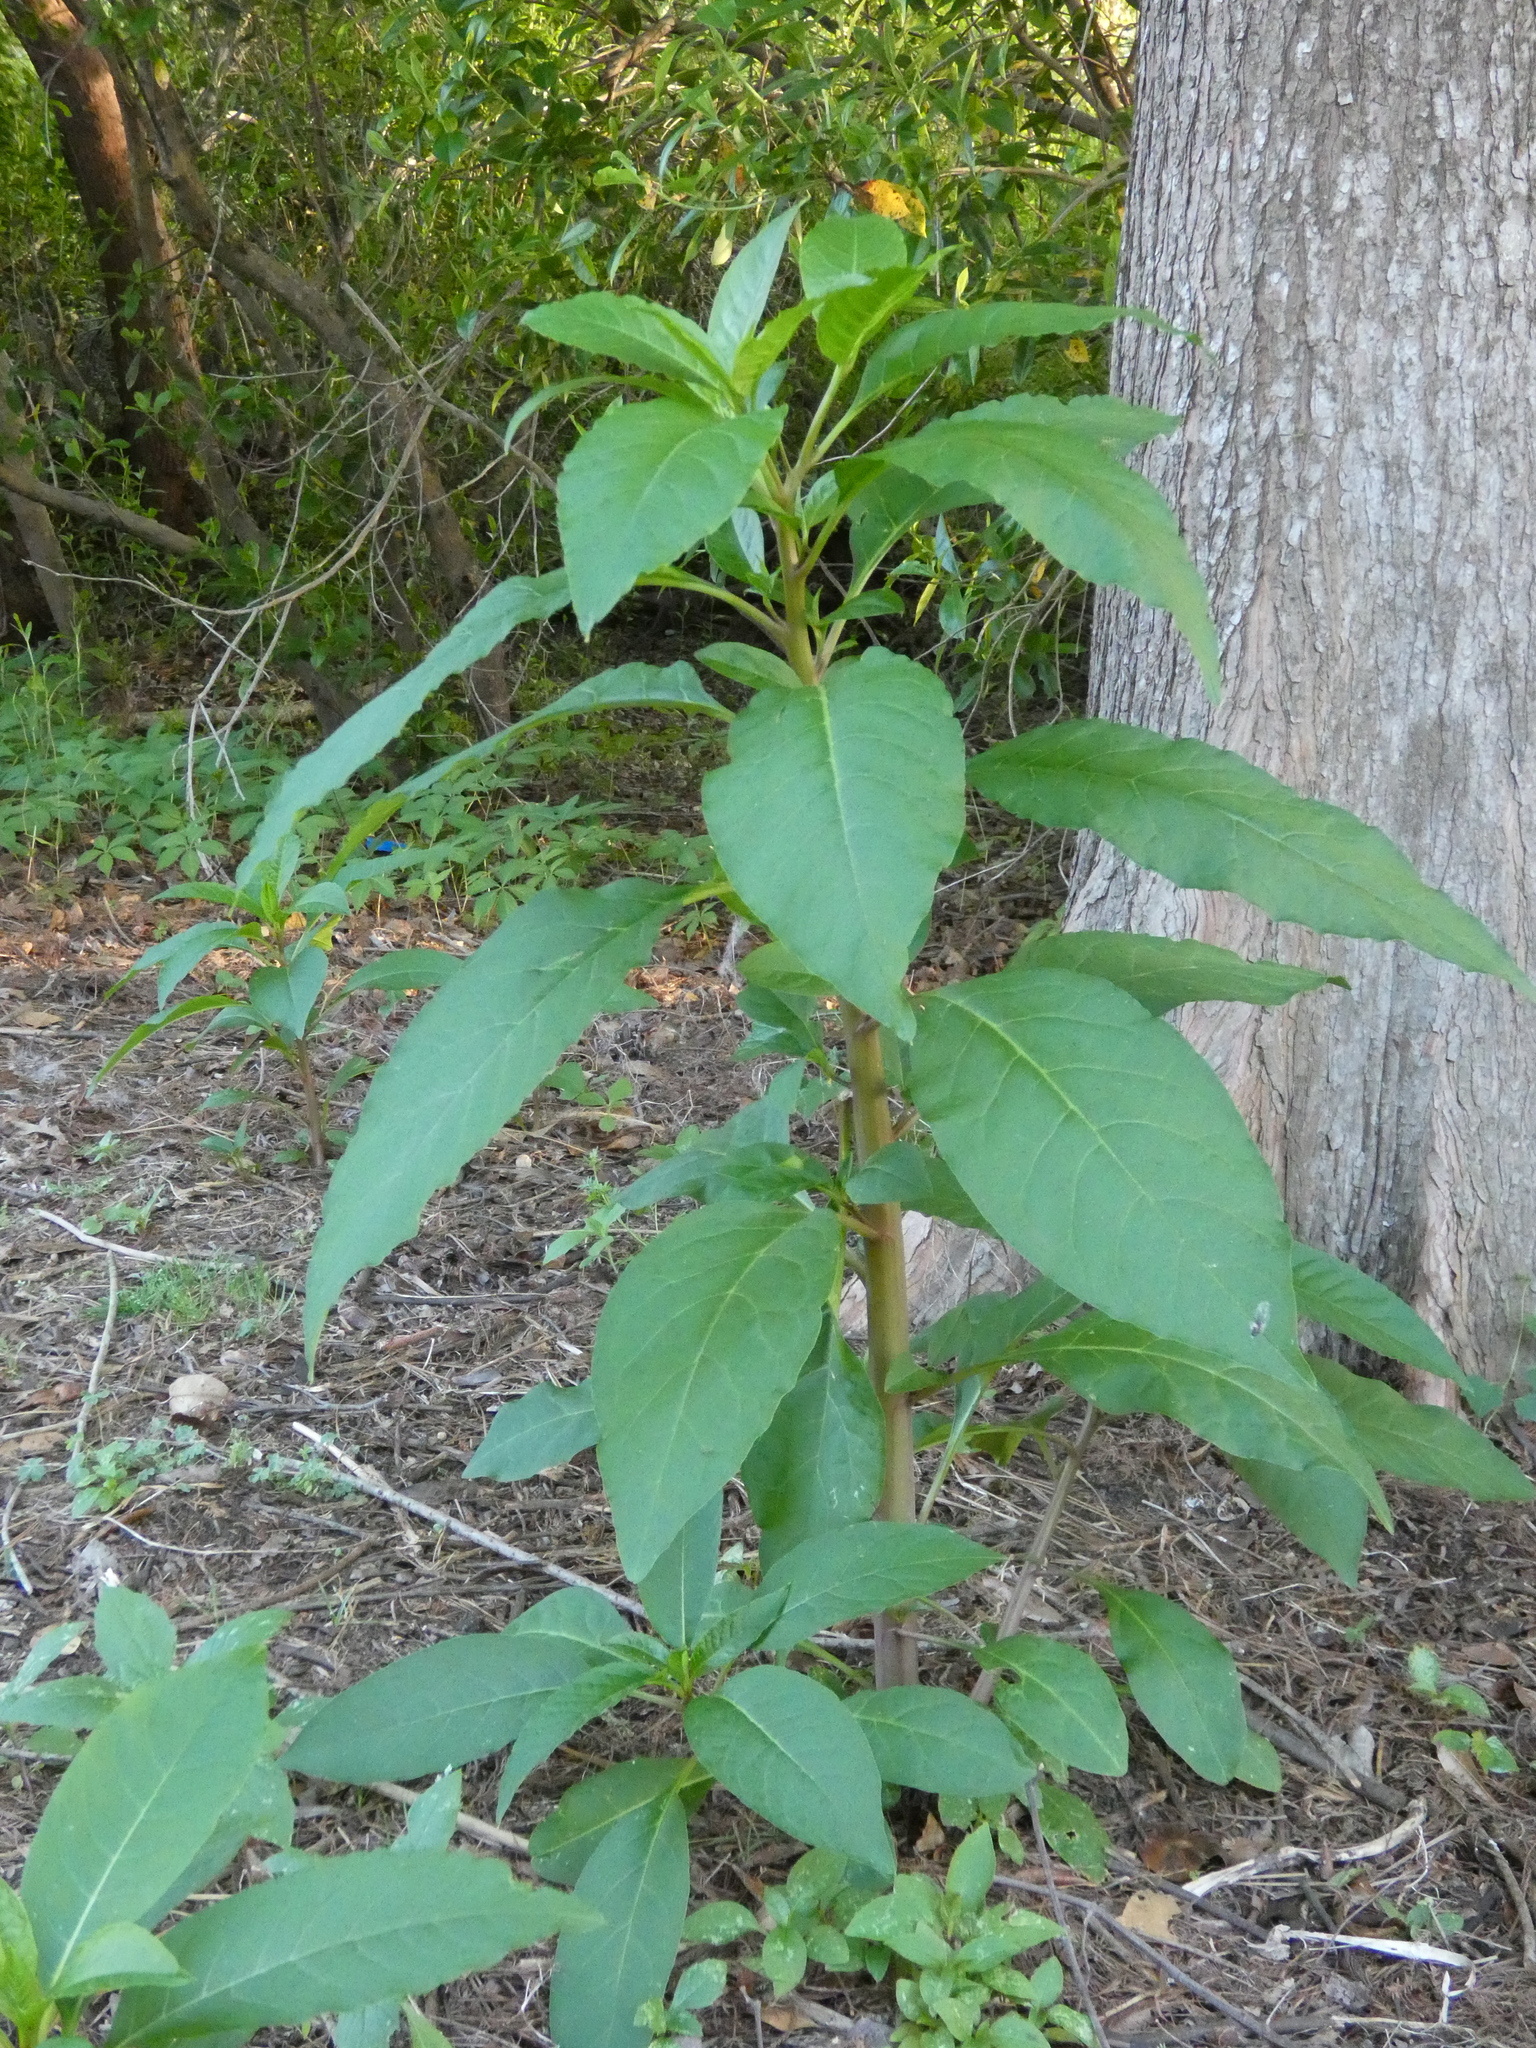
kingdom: Plantae
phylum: Tracheophyta
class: Magnoliopsida
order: Caryophyllales
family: Phytolaccaceae
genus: Phytolacca
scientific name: Phytolacca americana
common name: American pokeweed
